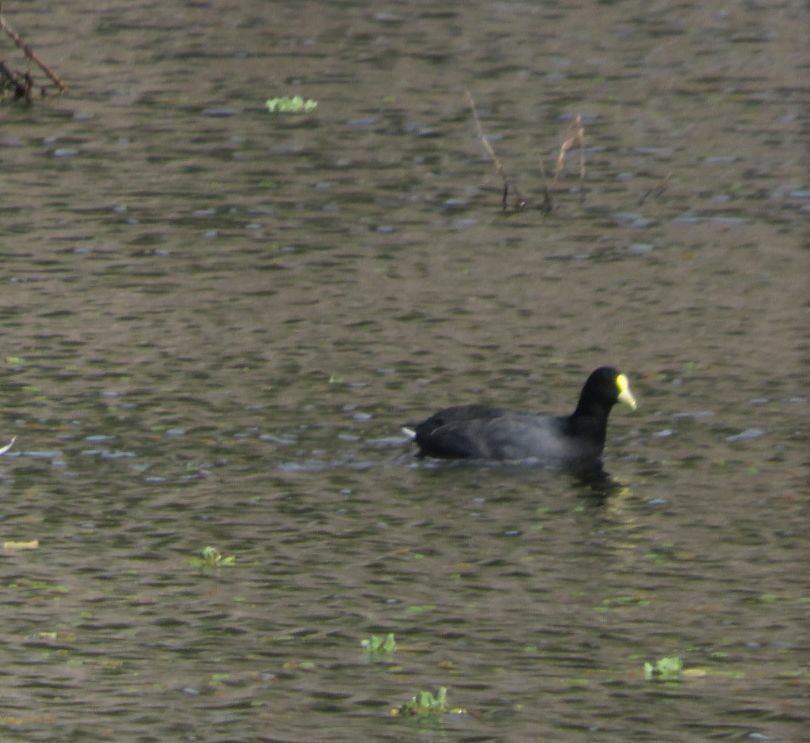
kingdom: Animalia
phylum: Chordata
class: Aves
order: Gruiformes
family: Rallidae
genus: Fulica
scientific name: Fulica leucoptera
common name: White-winged coot
